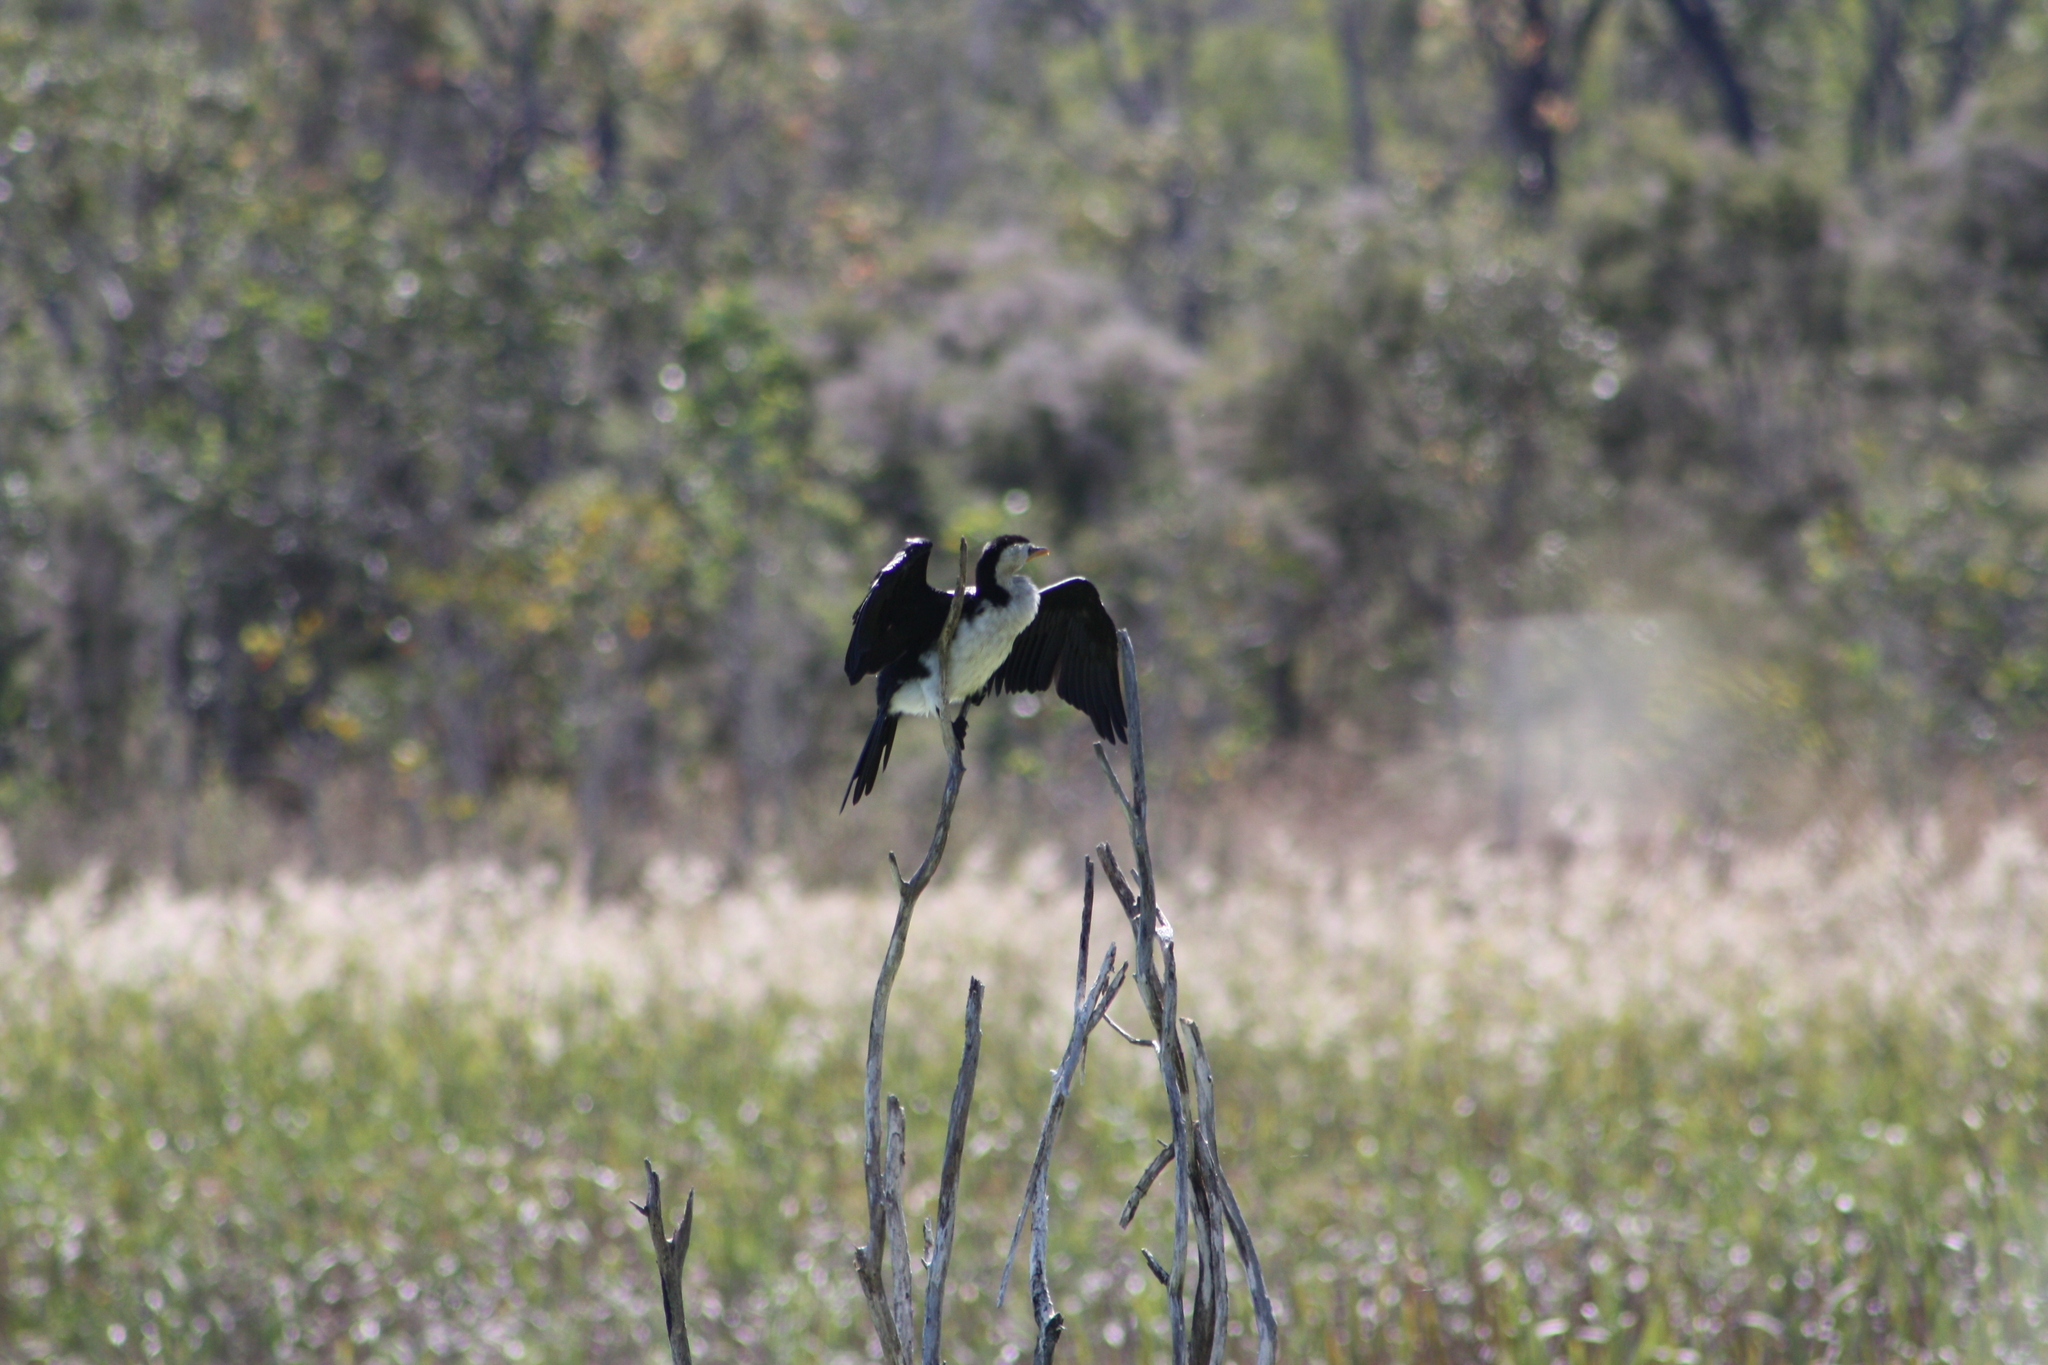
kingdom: Animalia
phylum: Chordata
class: Aves
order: Suliformes
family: Phalacrocoracidae
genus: Microcarbo
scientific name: Microcarbo melanoleucos
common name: Little pied cormorant
